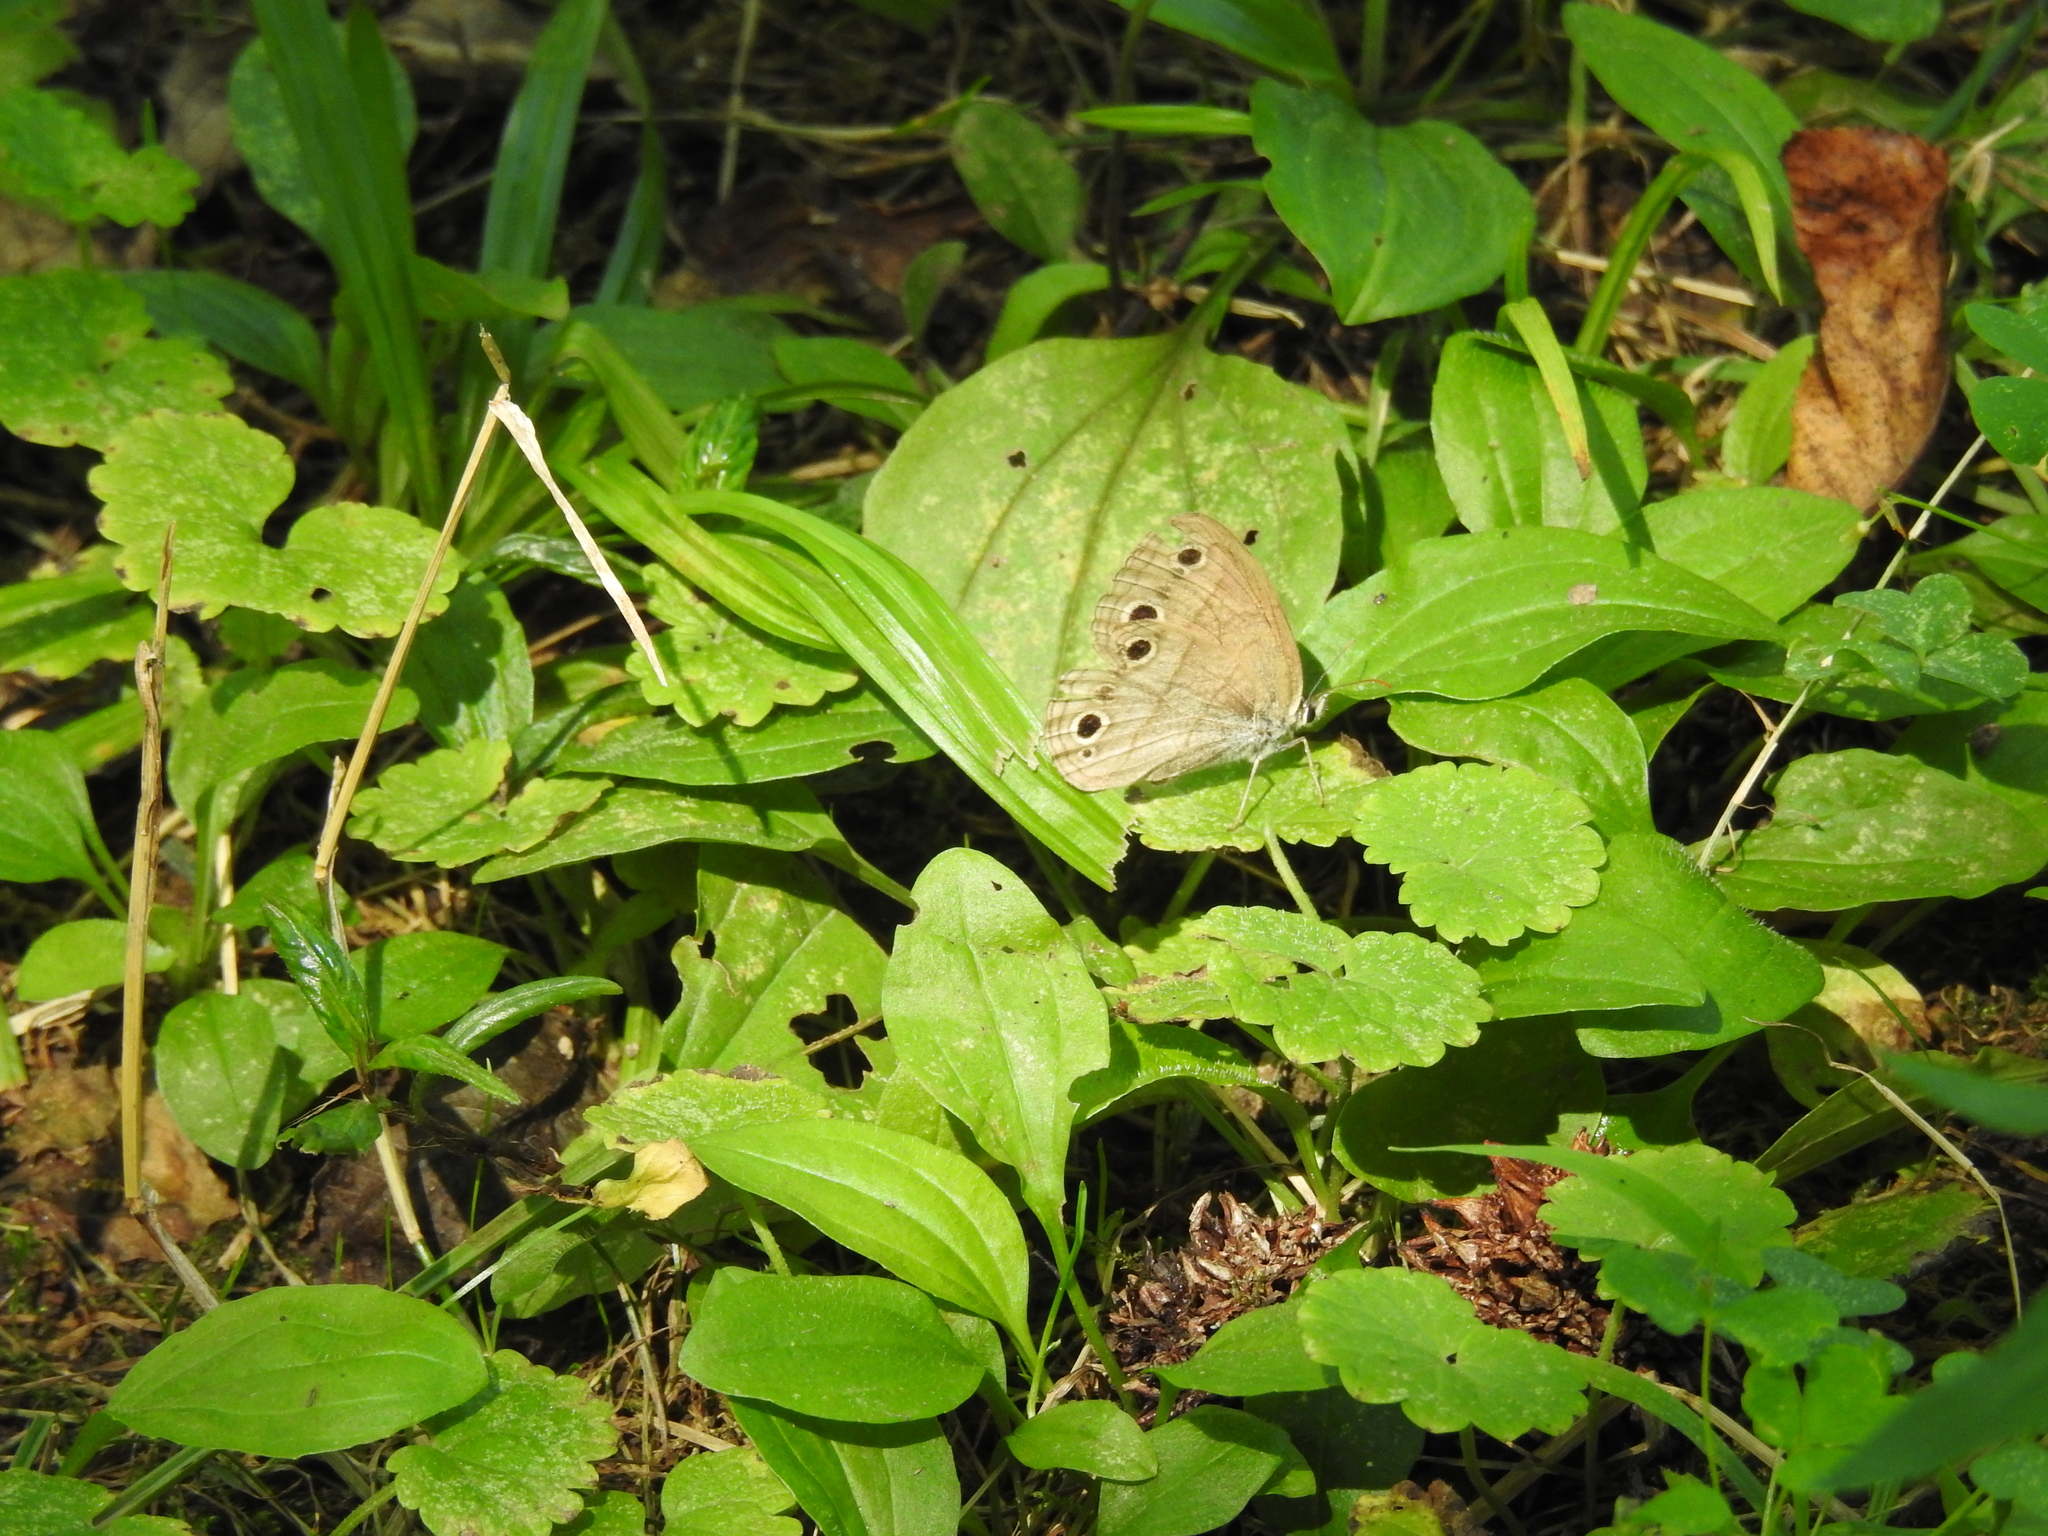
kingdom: Animalia
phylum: Arthropoda
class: Insecta
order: Lepidoptera
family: Nymphalidae
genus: Euptychia
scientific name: Euptychia cymela
